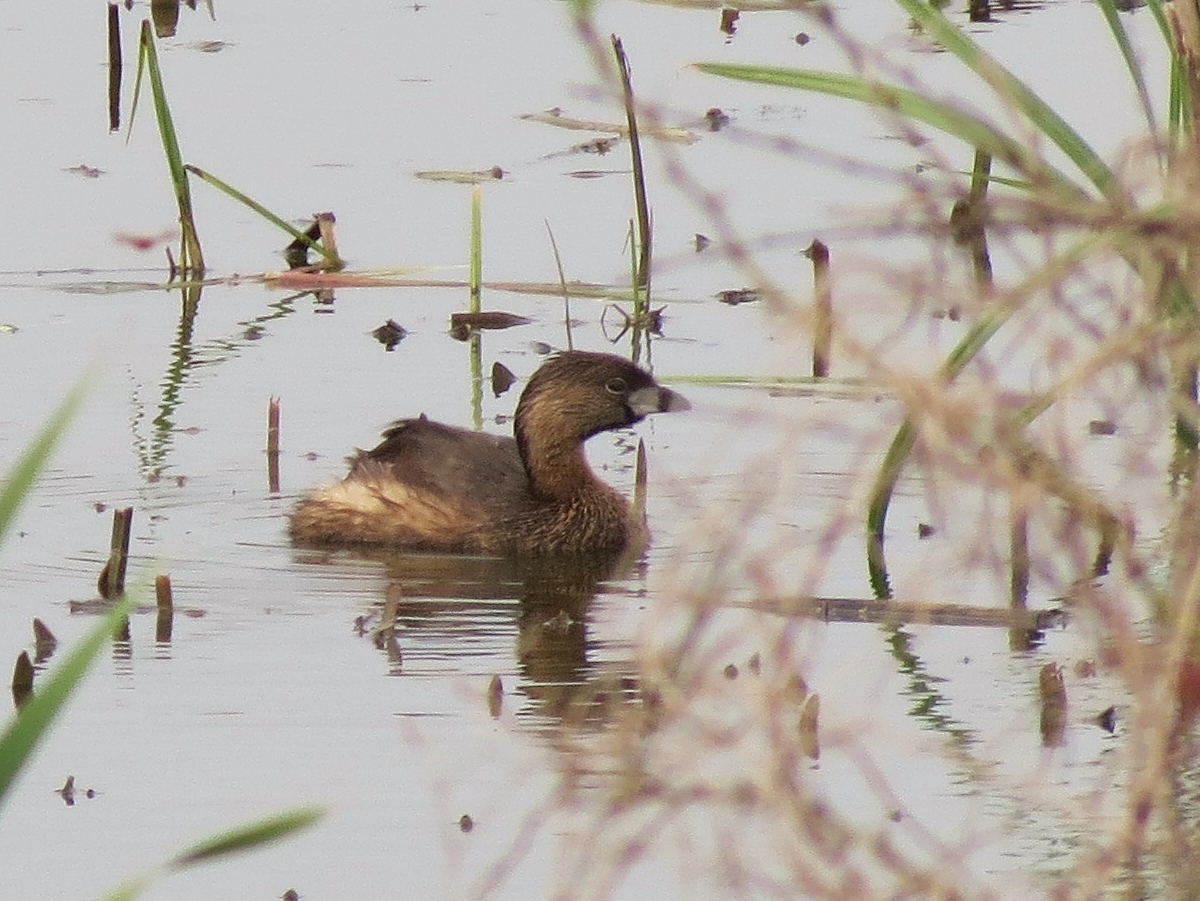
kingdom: Animalia
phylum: Chordata
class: Aves
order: Podicipediformes
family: Podicipedidae
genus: Podilymbus
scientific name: Podilymbus podiceps
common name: Pied-billed grebe
